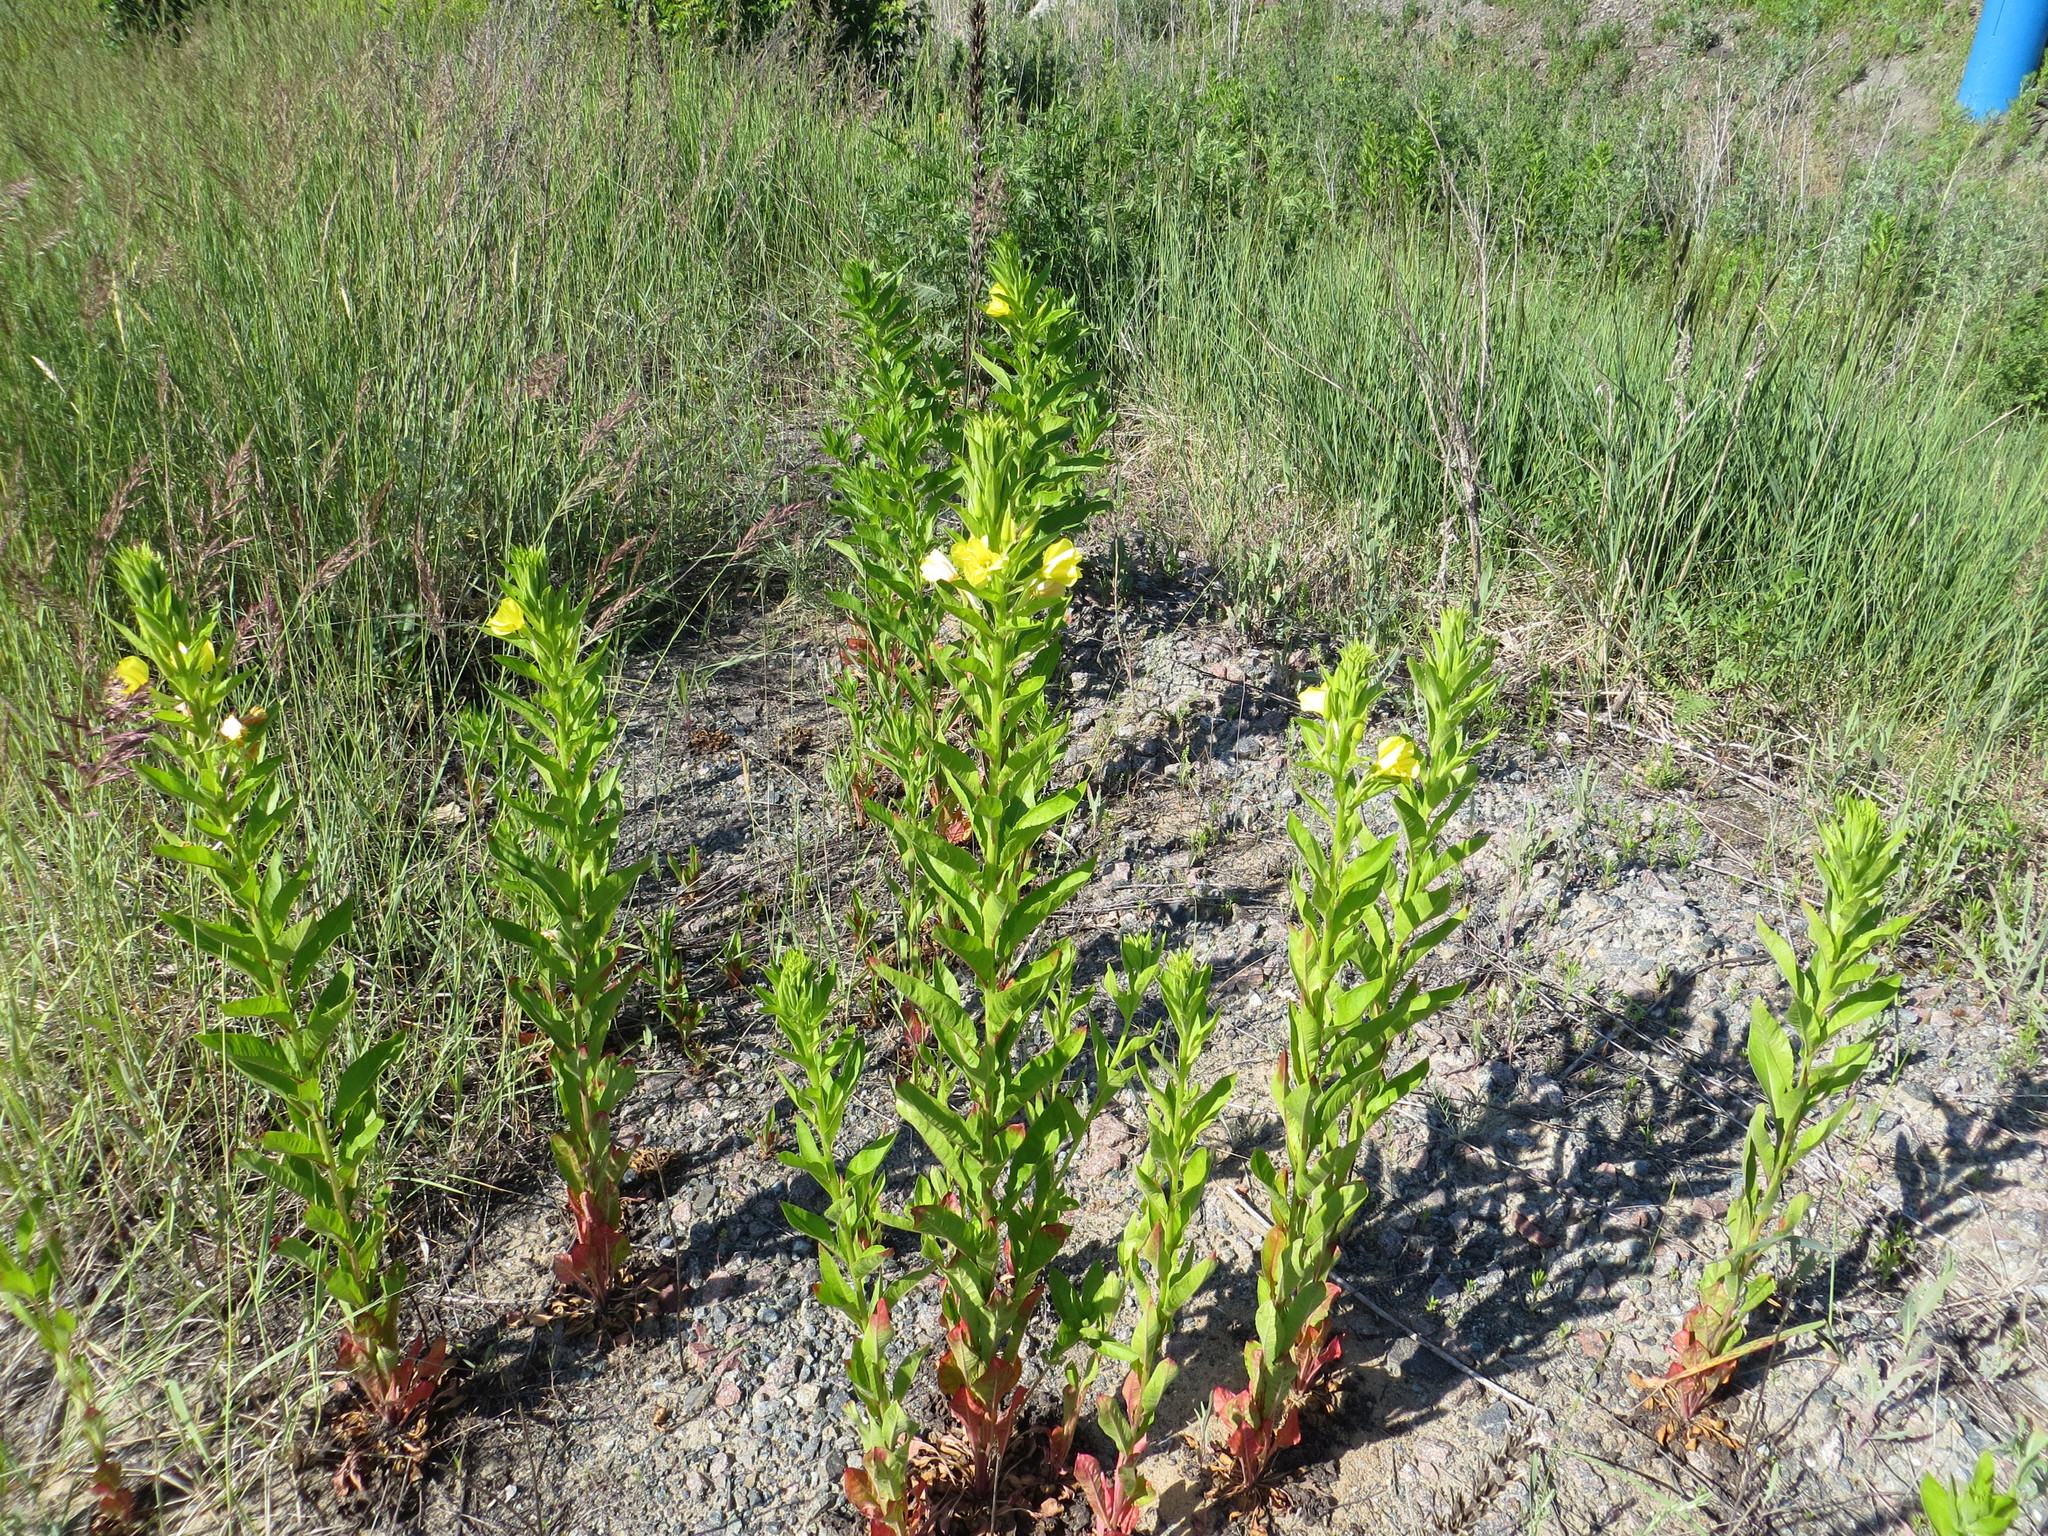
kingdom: Plantae
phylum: Tracheophyta
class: Magnoliopsida
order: Myrtales
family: Onagraceae
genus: Oenothera
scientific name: Oenothera biennis
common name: Common evening-primrose
